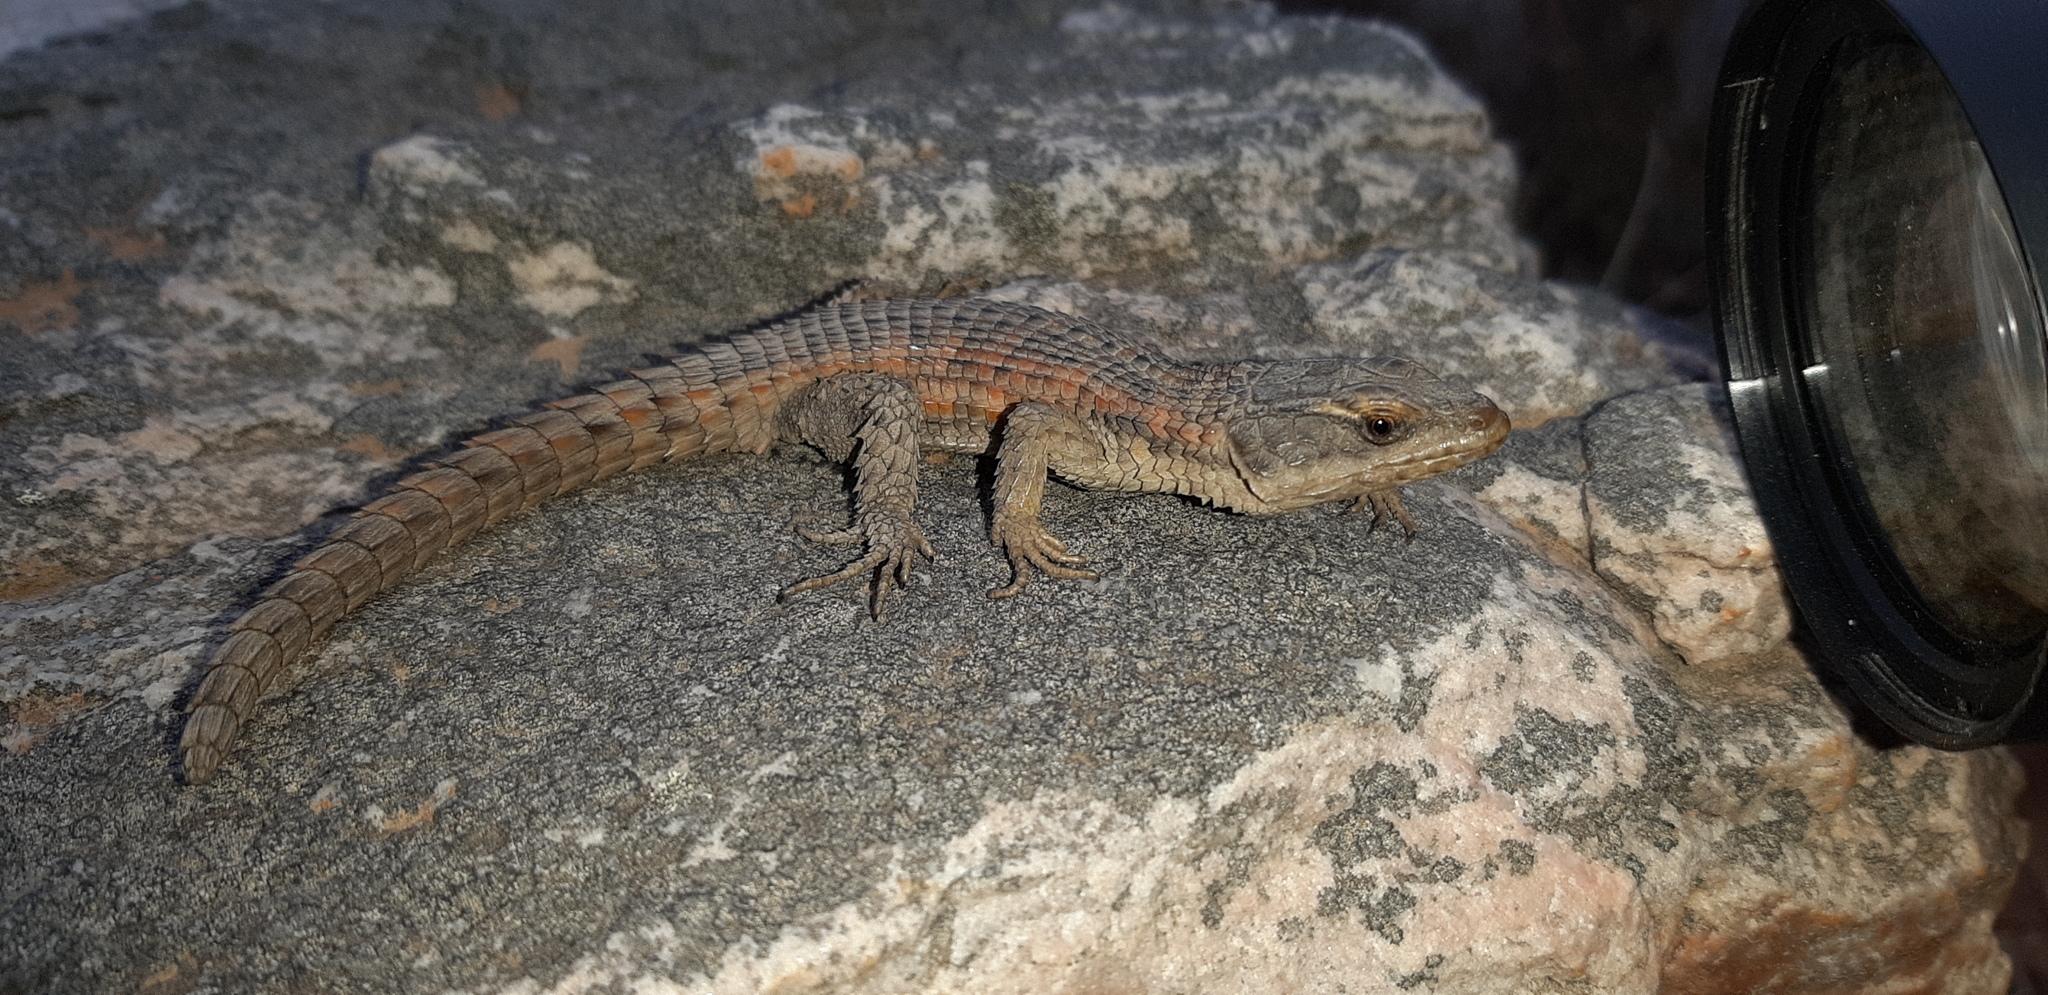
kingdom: Animalia
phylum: Chordata
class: Squamata
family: Cordylidae
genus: Cordylus
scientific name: Cordylus cordylus
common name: Cape girdled lizard
